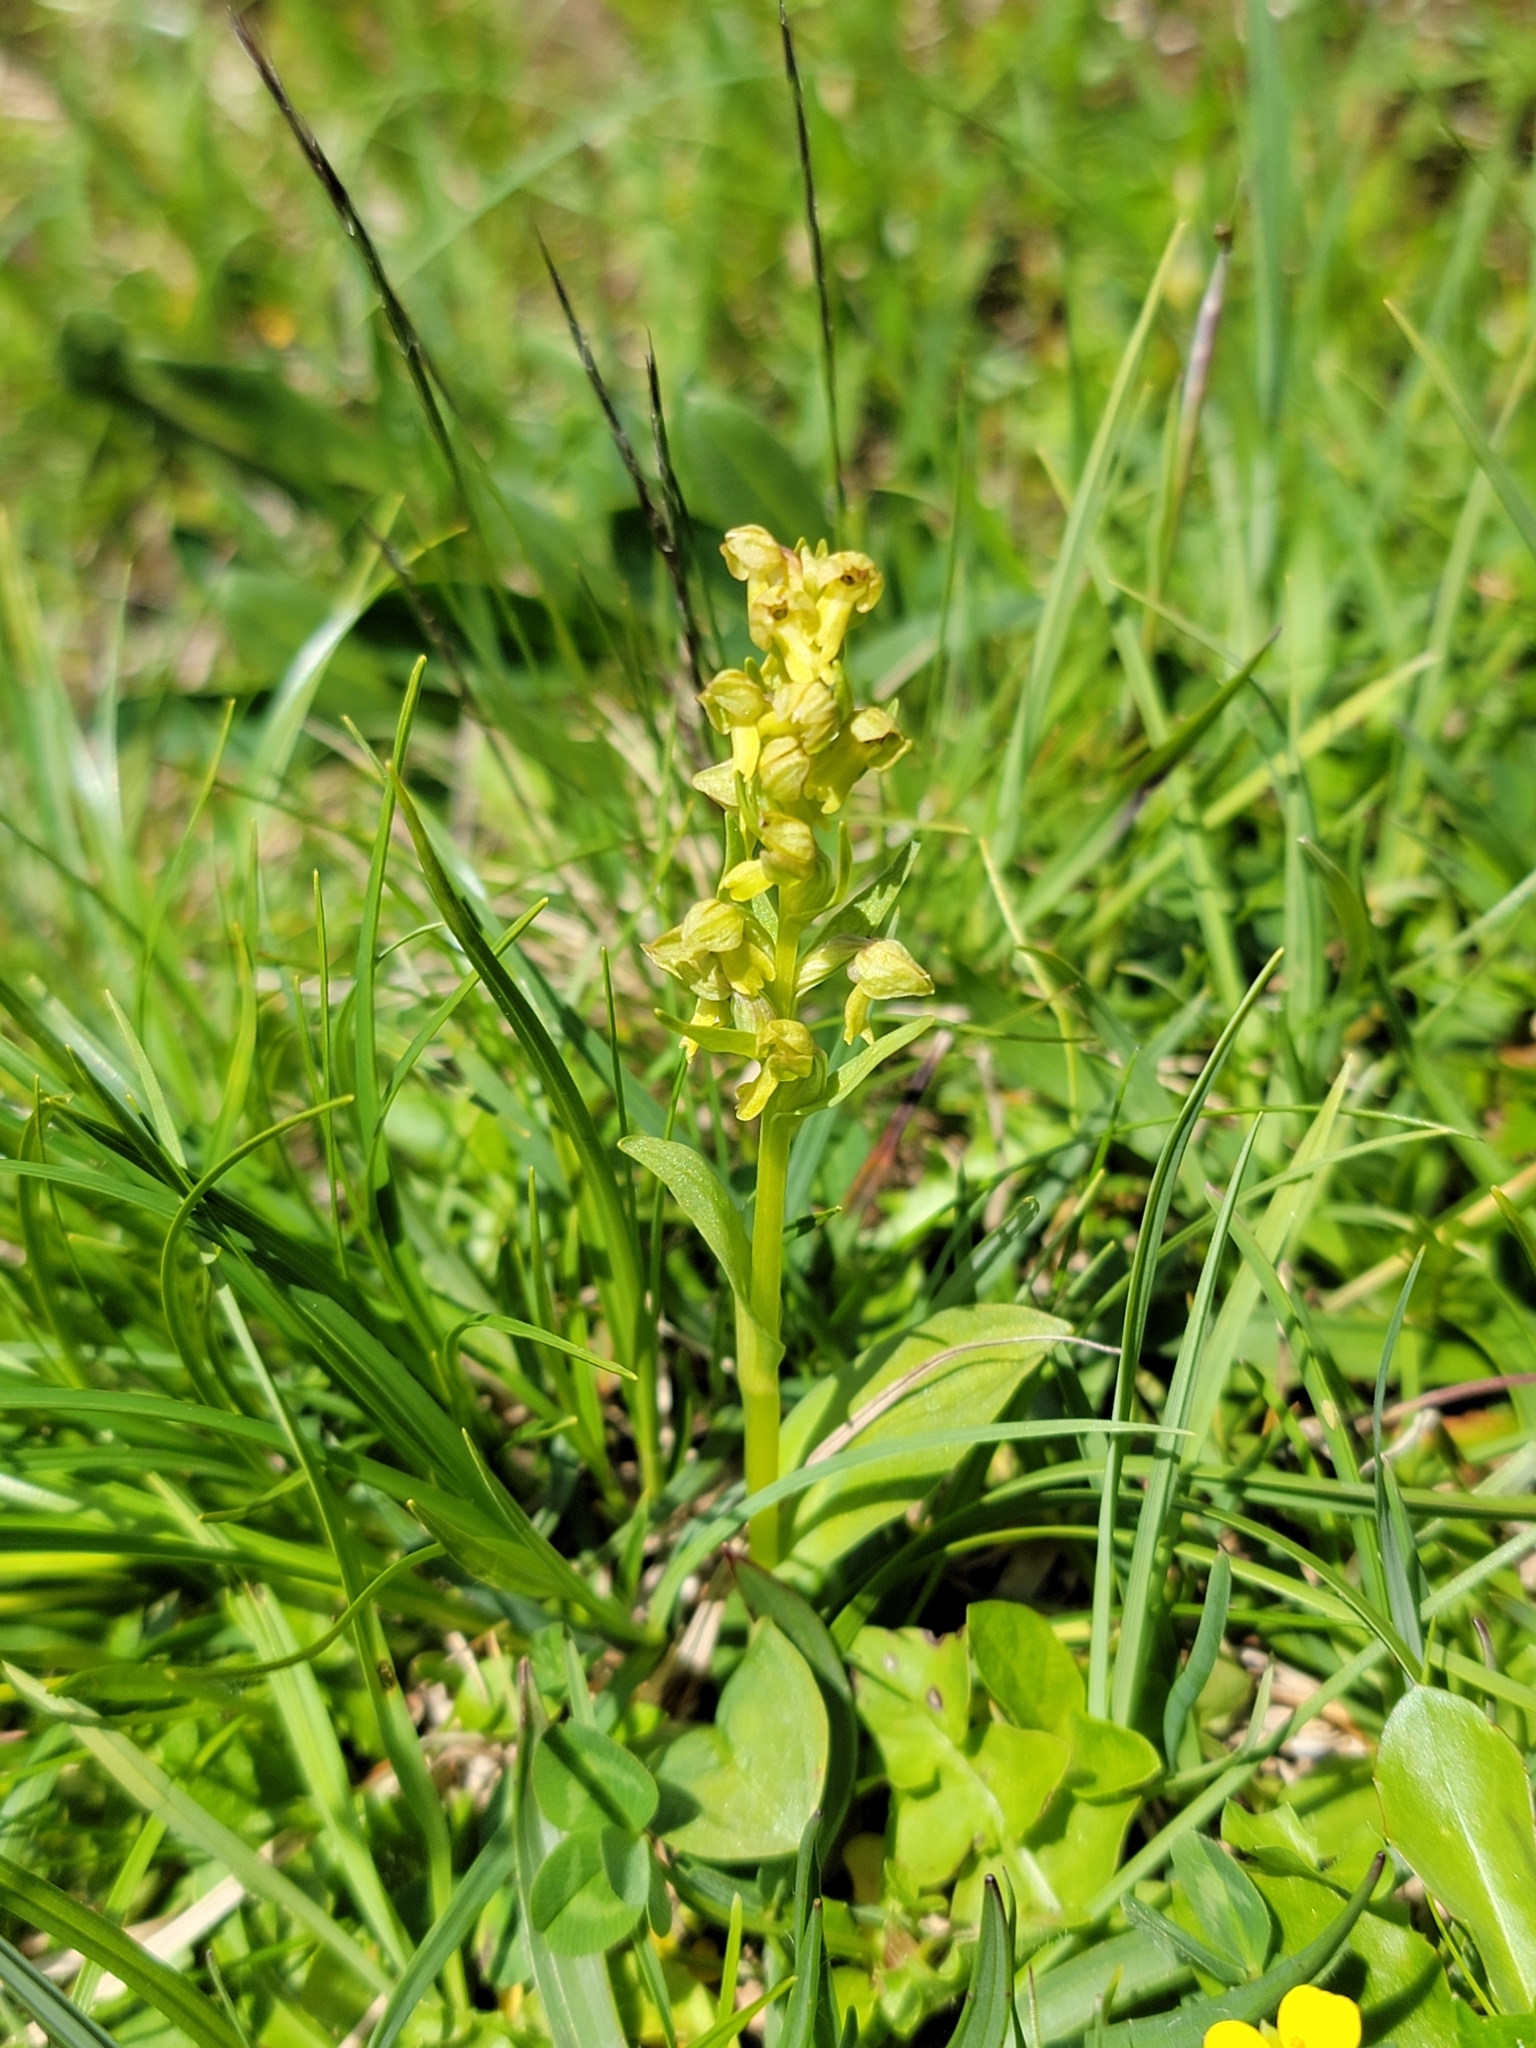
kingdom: Plantae
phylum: Tracheophyta
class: Liliopsida
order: Asparagales
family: Orchidaceae
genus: Dactylorhiza
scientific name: Dactylorhiza viridis
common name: Longbract frog orchid
